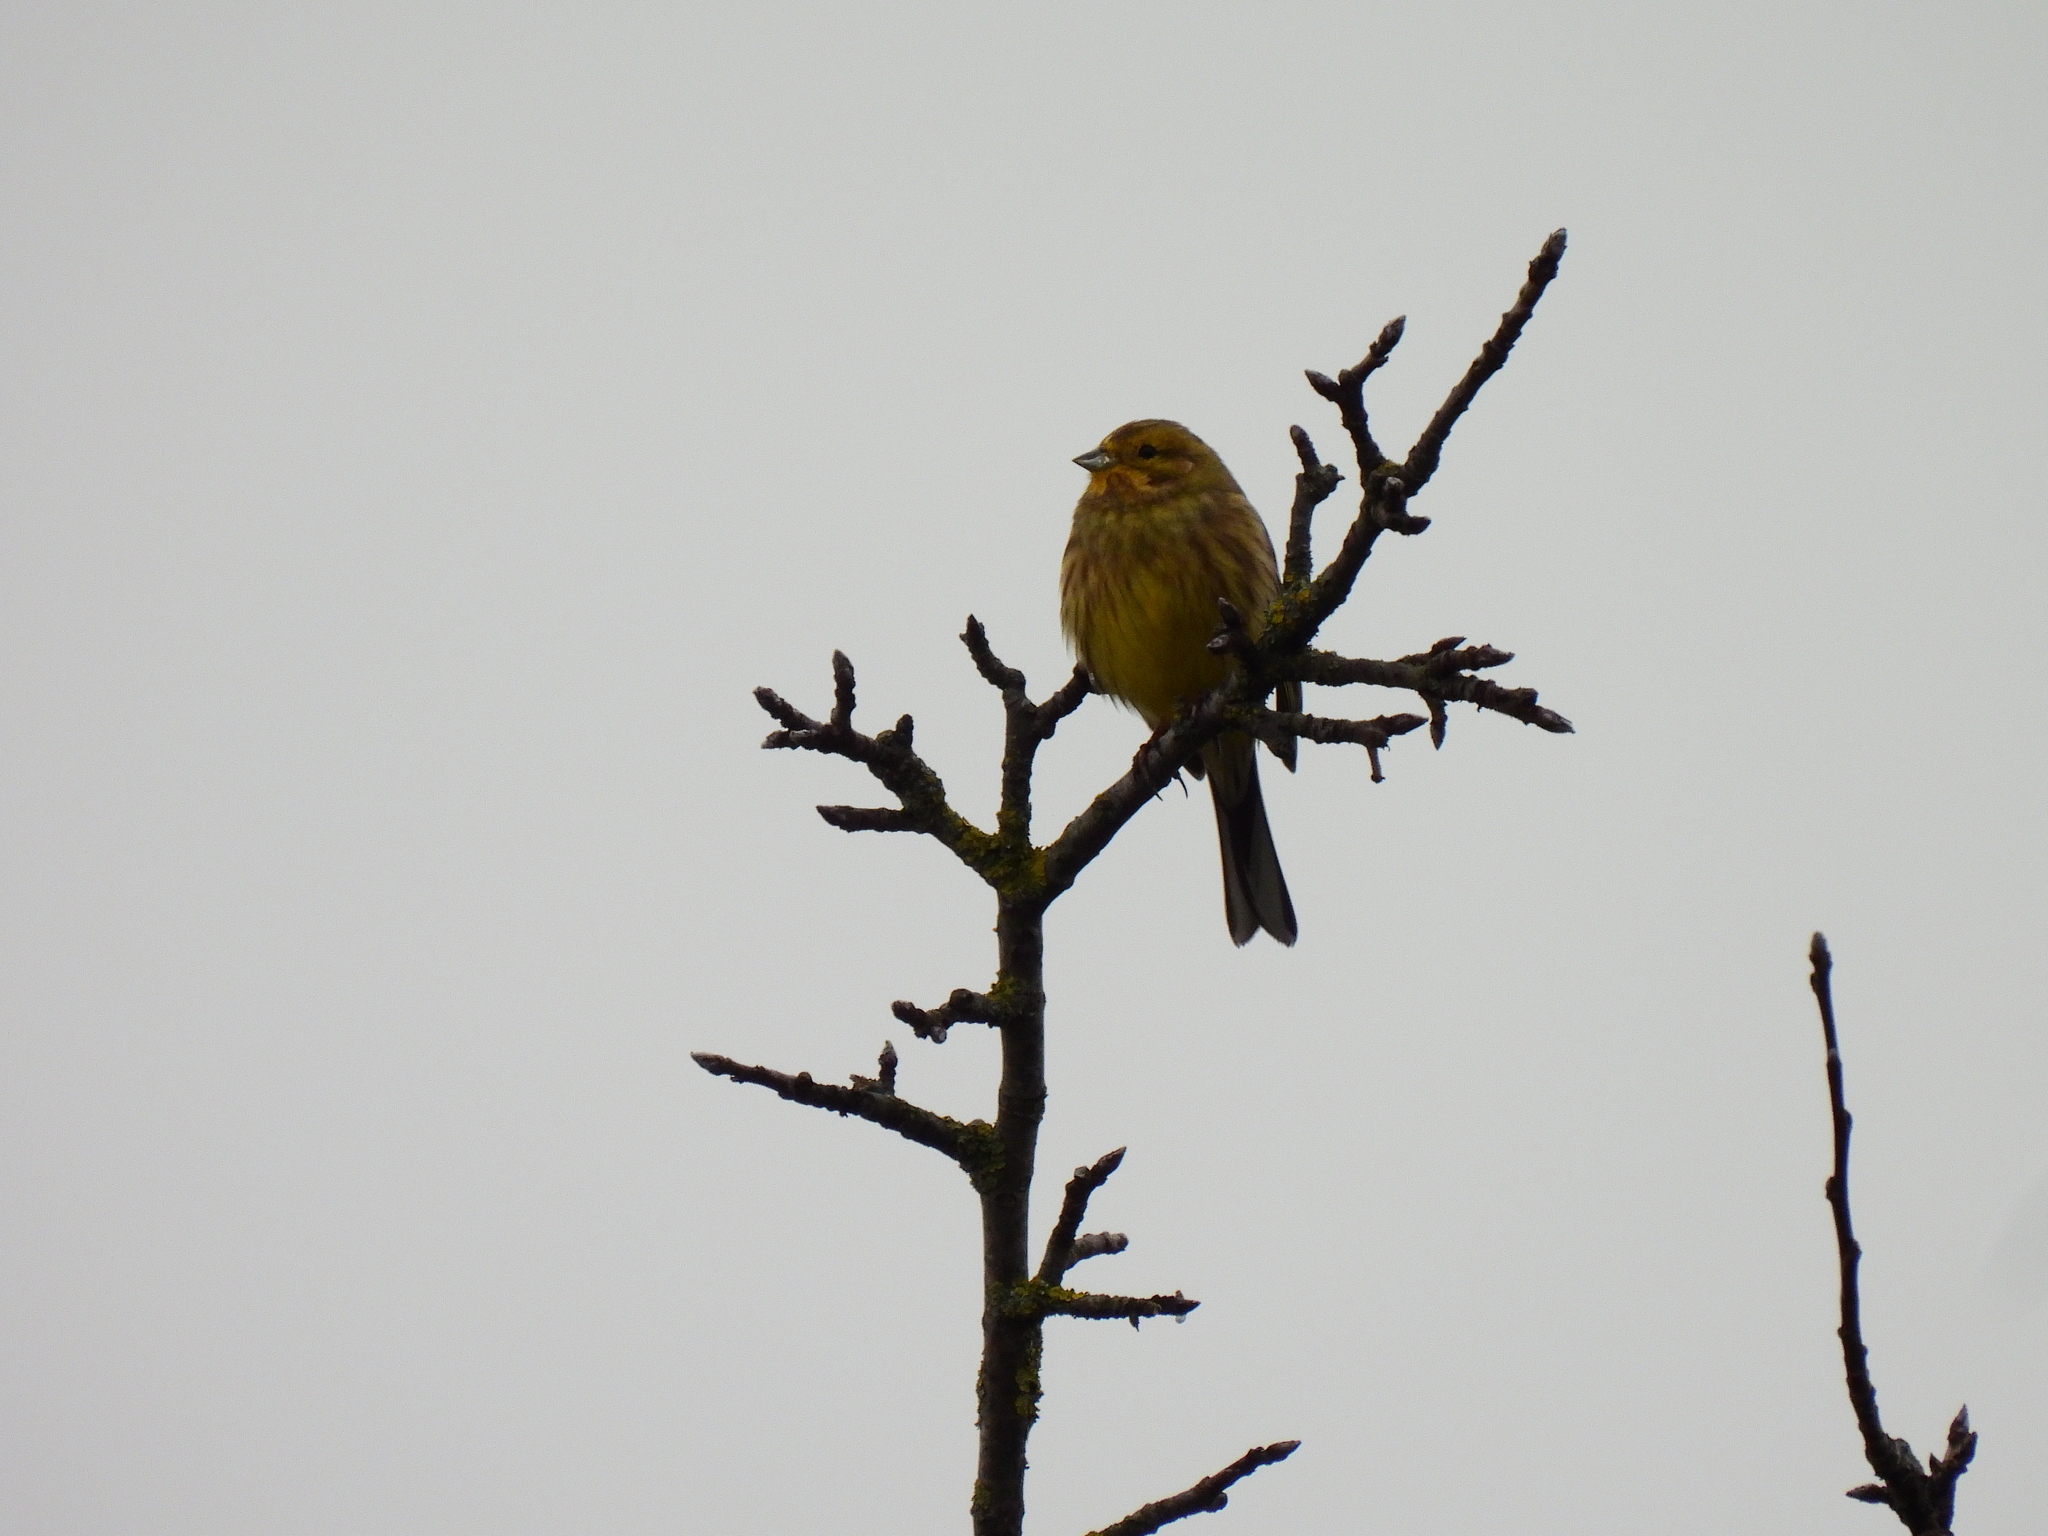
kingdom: Animalia
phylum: Chordata
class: Aves
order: Passeriformes
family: Emberizidae
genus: Emberiza
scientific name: Emberiza citrinella
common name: Yellowhammer
